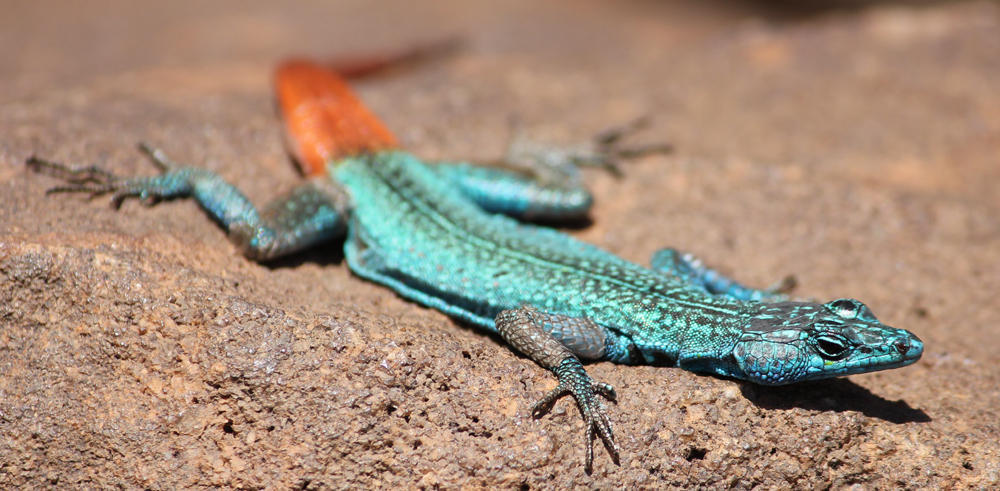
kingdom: Animalia
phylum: Chordata
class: Squamata
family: Cordylidae
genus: Platysaurus
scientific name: Platysaurus relictus
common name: Soutpansberg flat lizard
